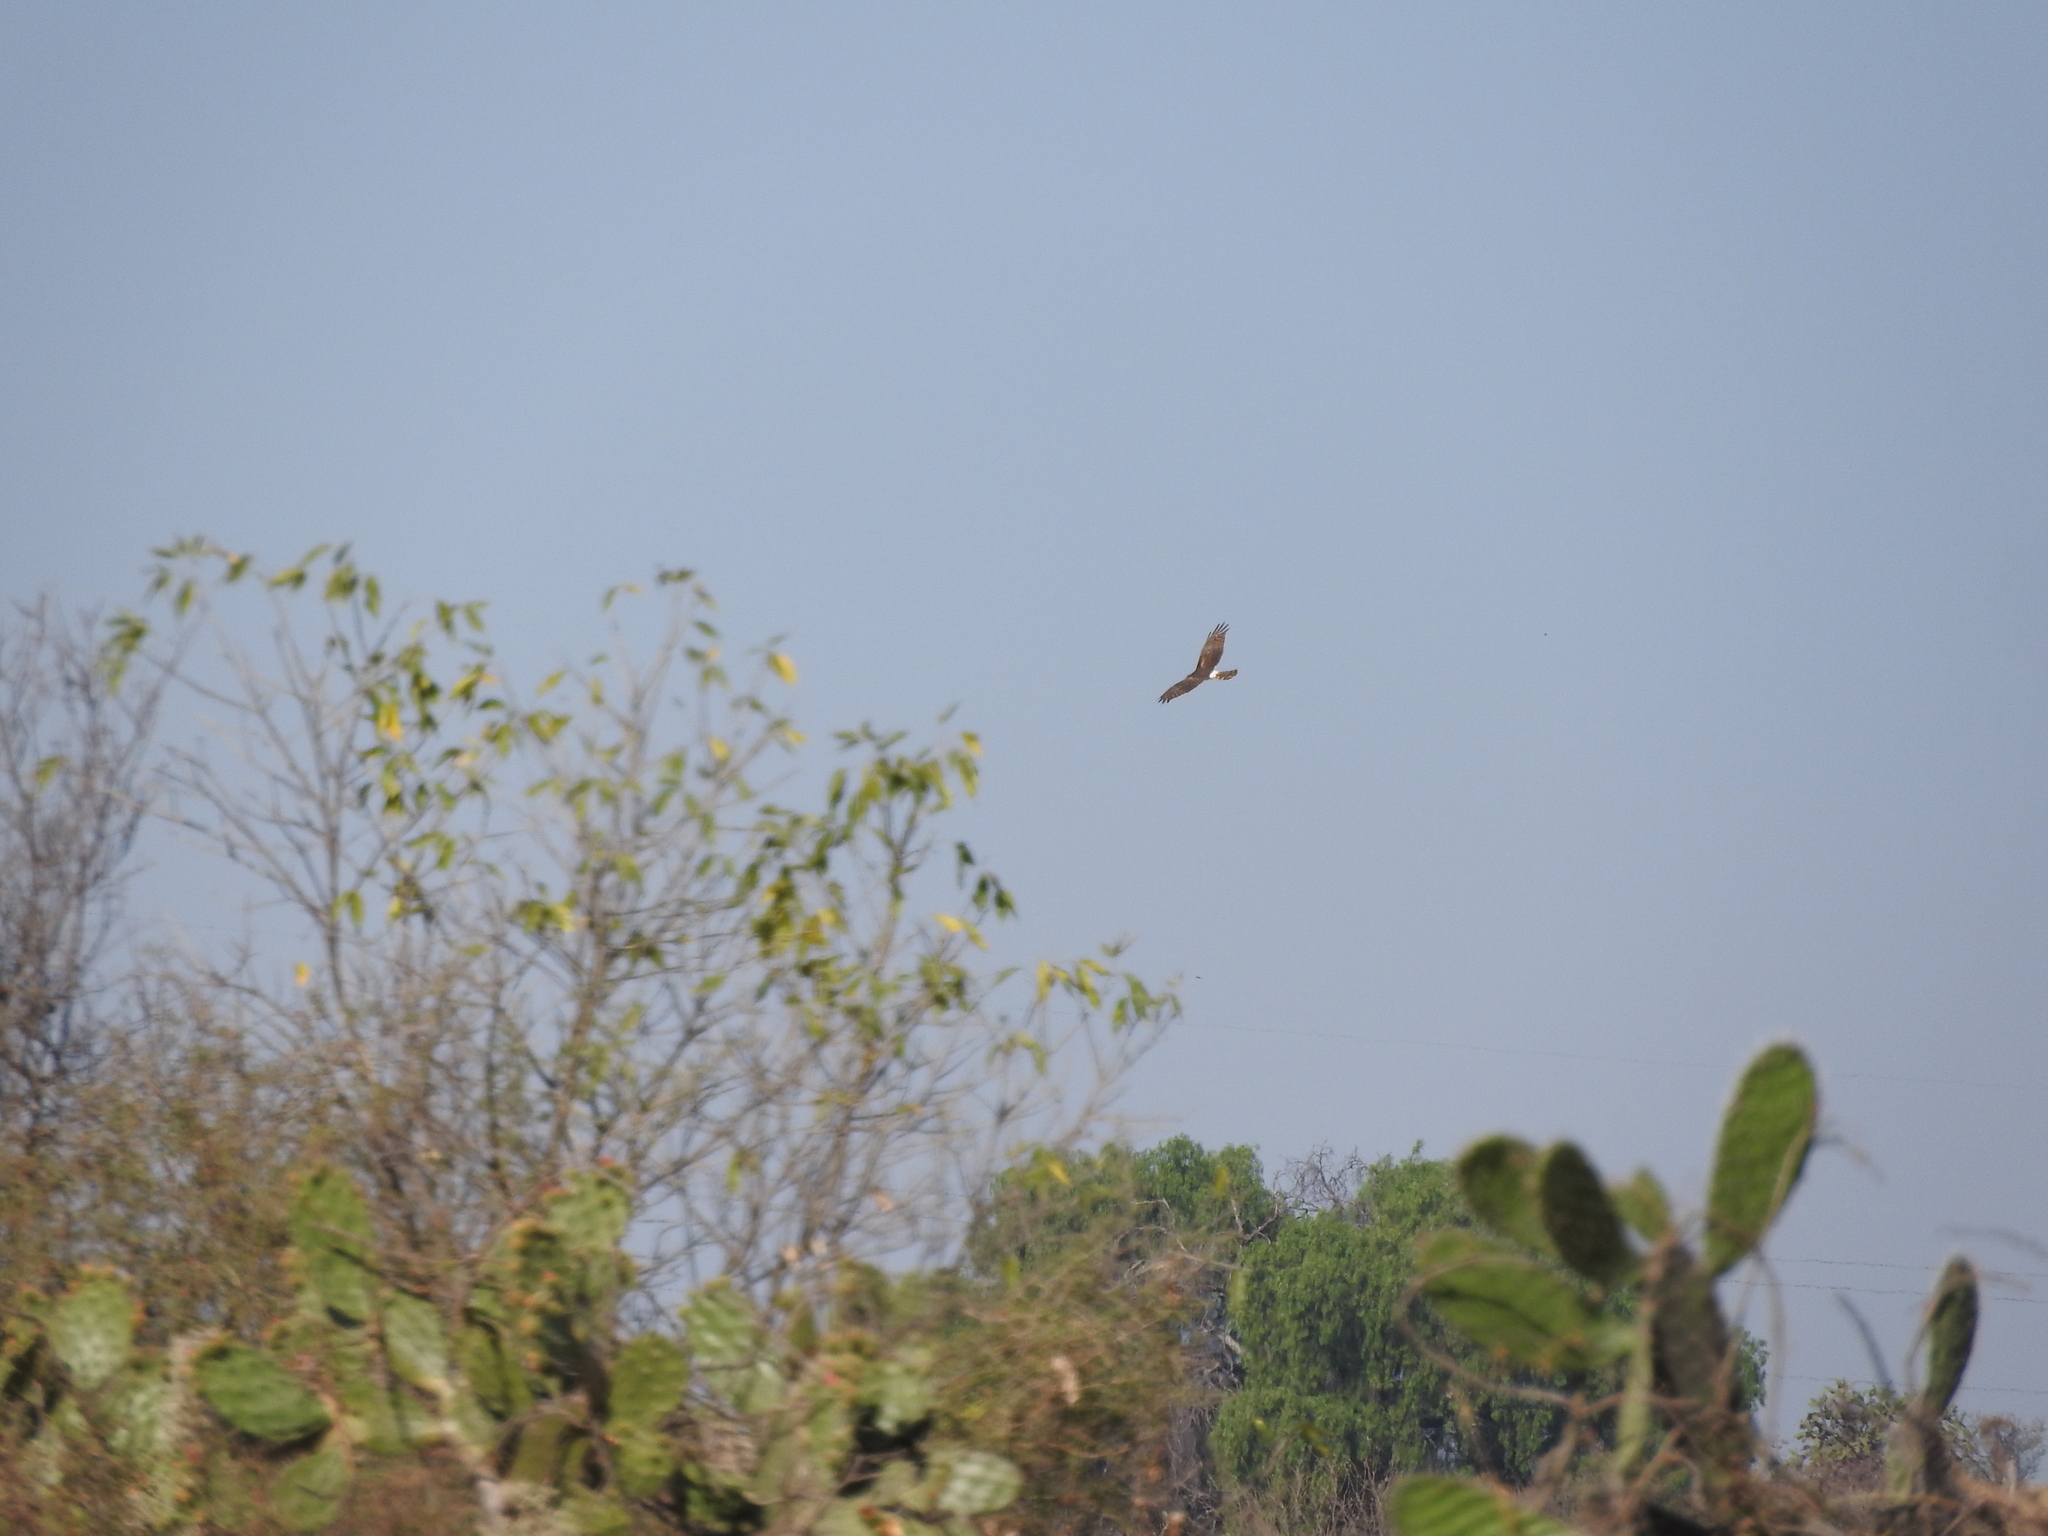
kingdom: Animalia
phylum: Chordata
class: Aves
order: Accipitriformes
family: Accipitridae
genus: Circus
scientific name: Circus cyaneus
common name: Hen harrier
